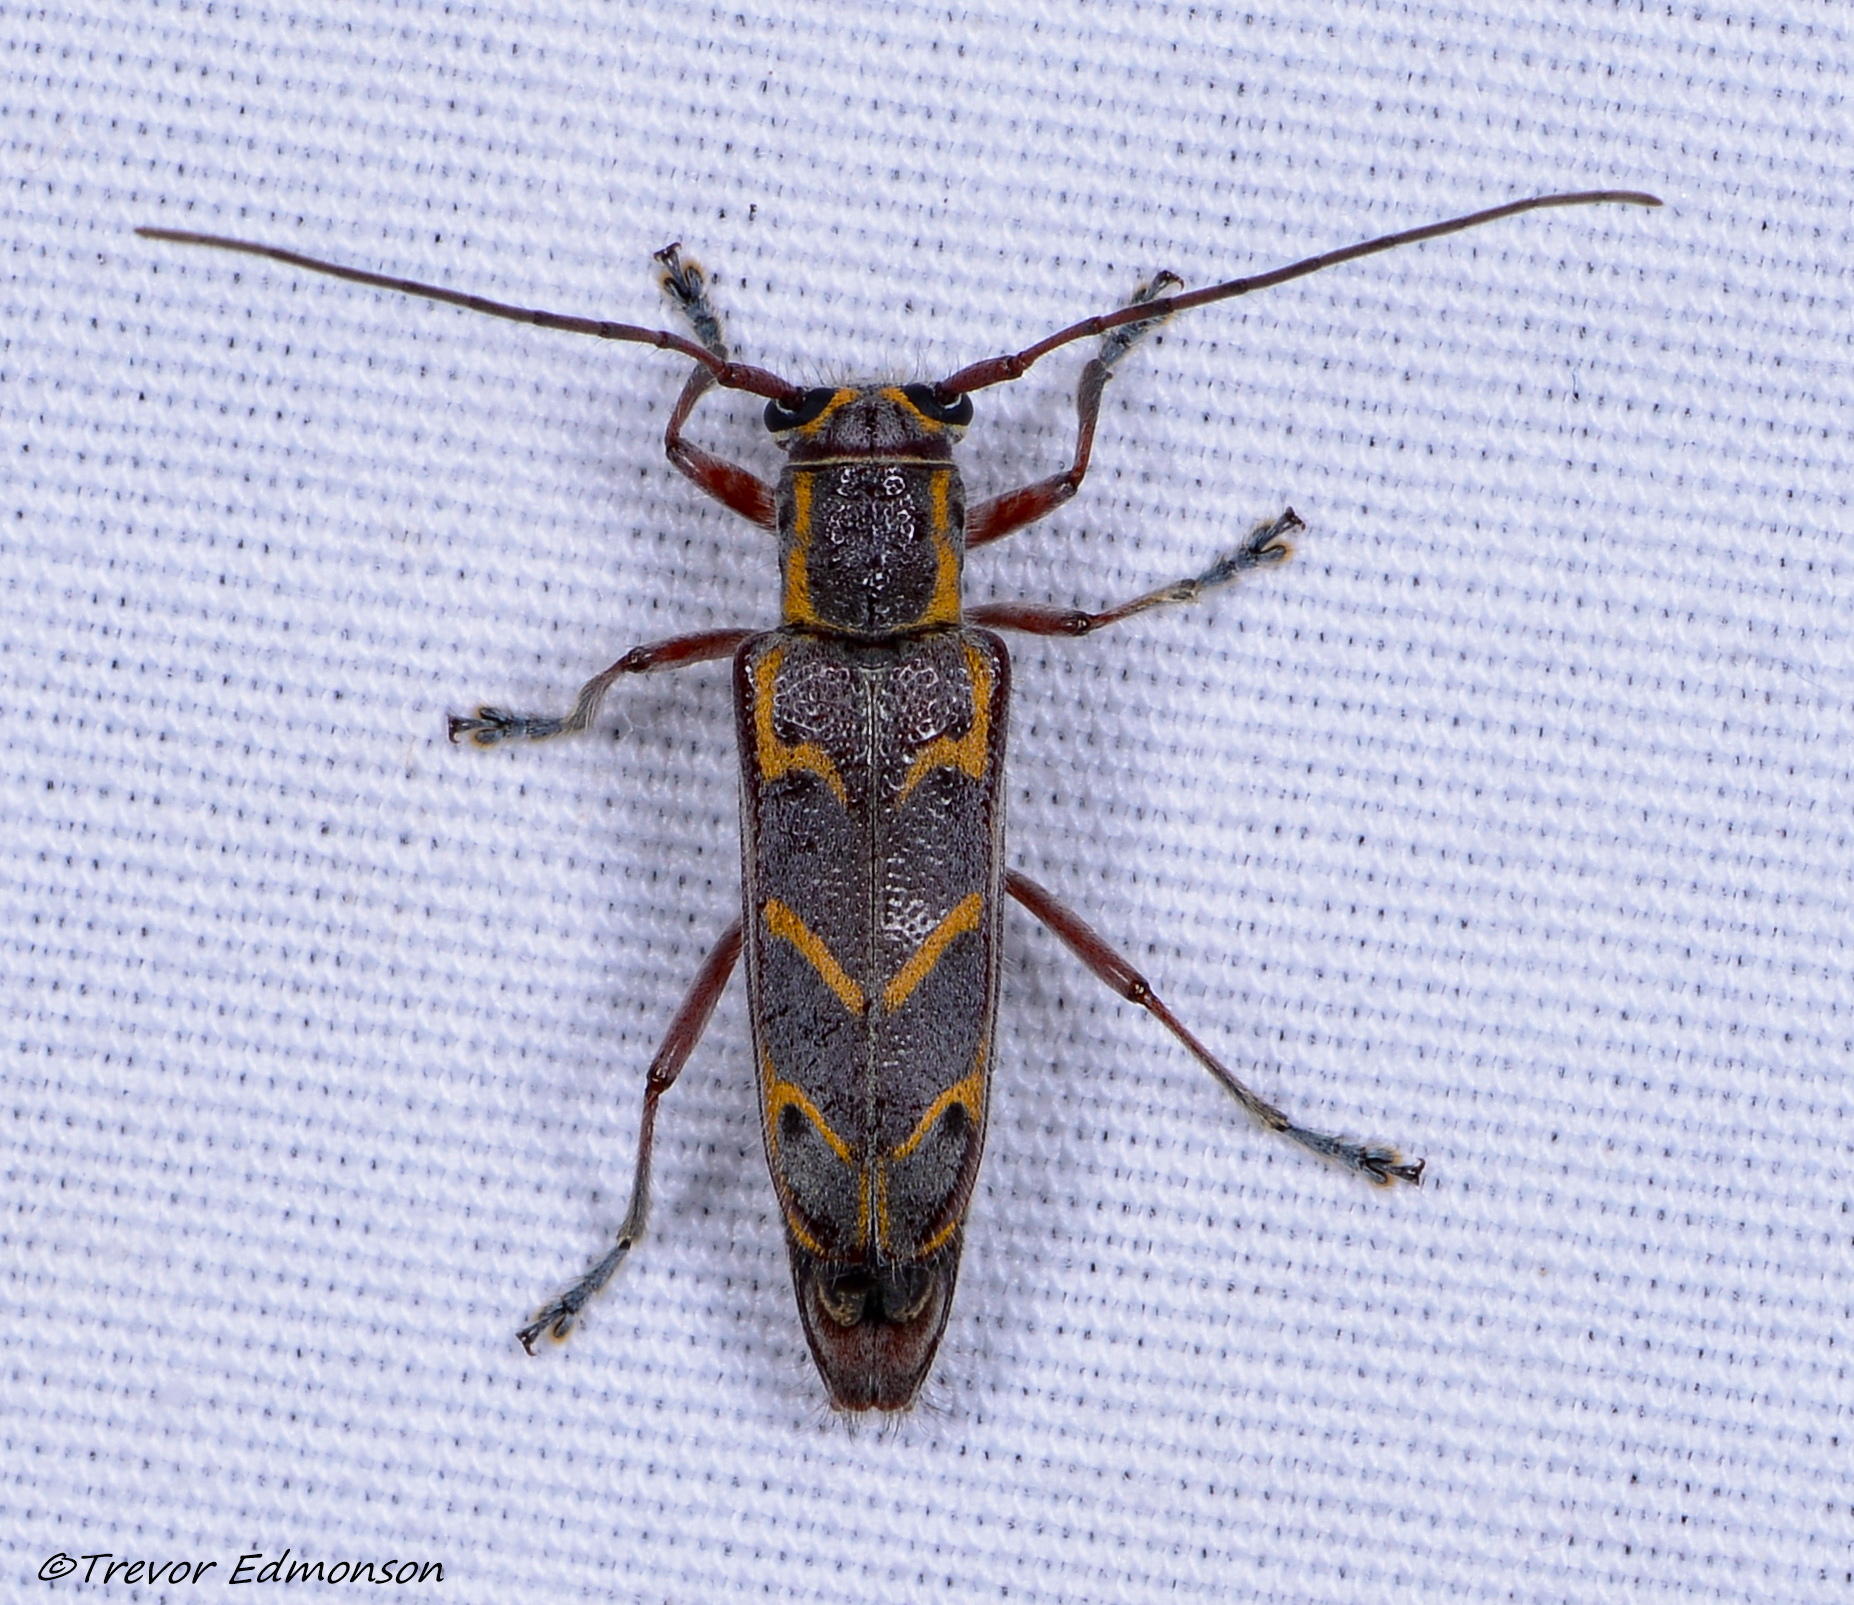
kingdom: Animalia
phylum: Arthropoda
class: Insecta
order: Coleoptera
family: Cerambycidae
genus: Saperda
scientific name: Saperda tridentata
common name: Elm borer
